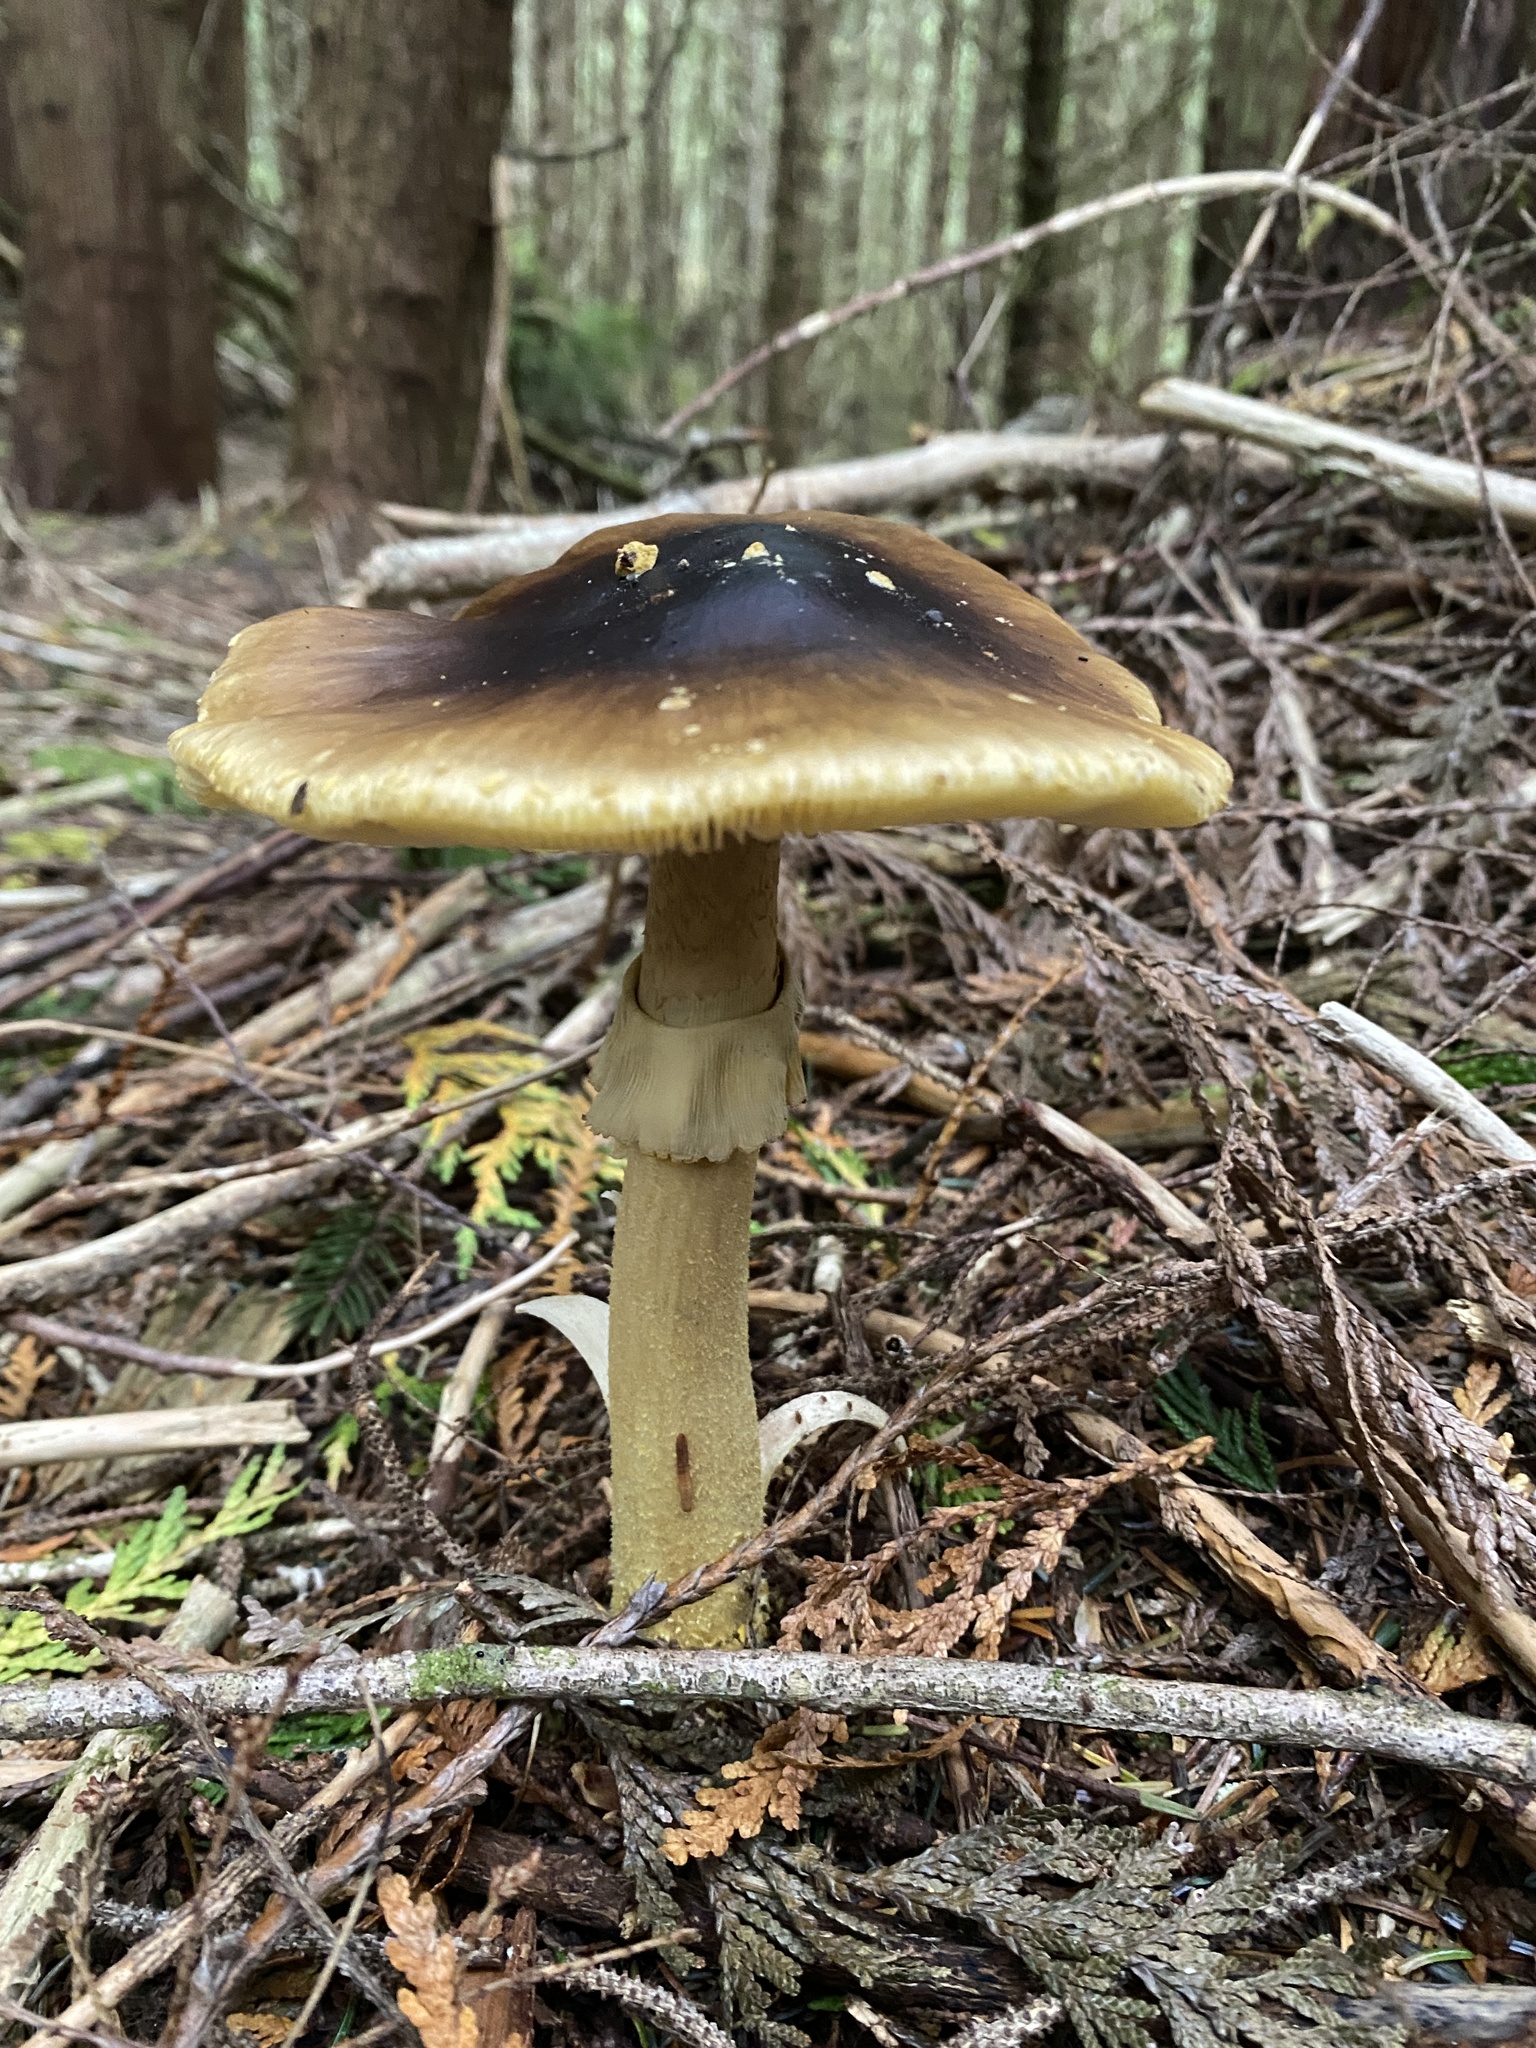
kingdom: Fungi
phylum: Basidiomycota
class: Agaricomycetes
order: Agaricales
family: Amanitaceae
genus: Amanita
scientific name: Amanita augusta
